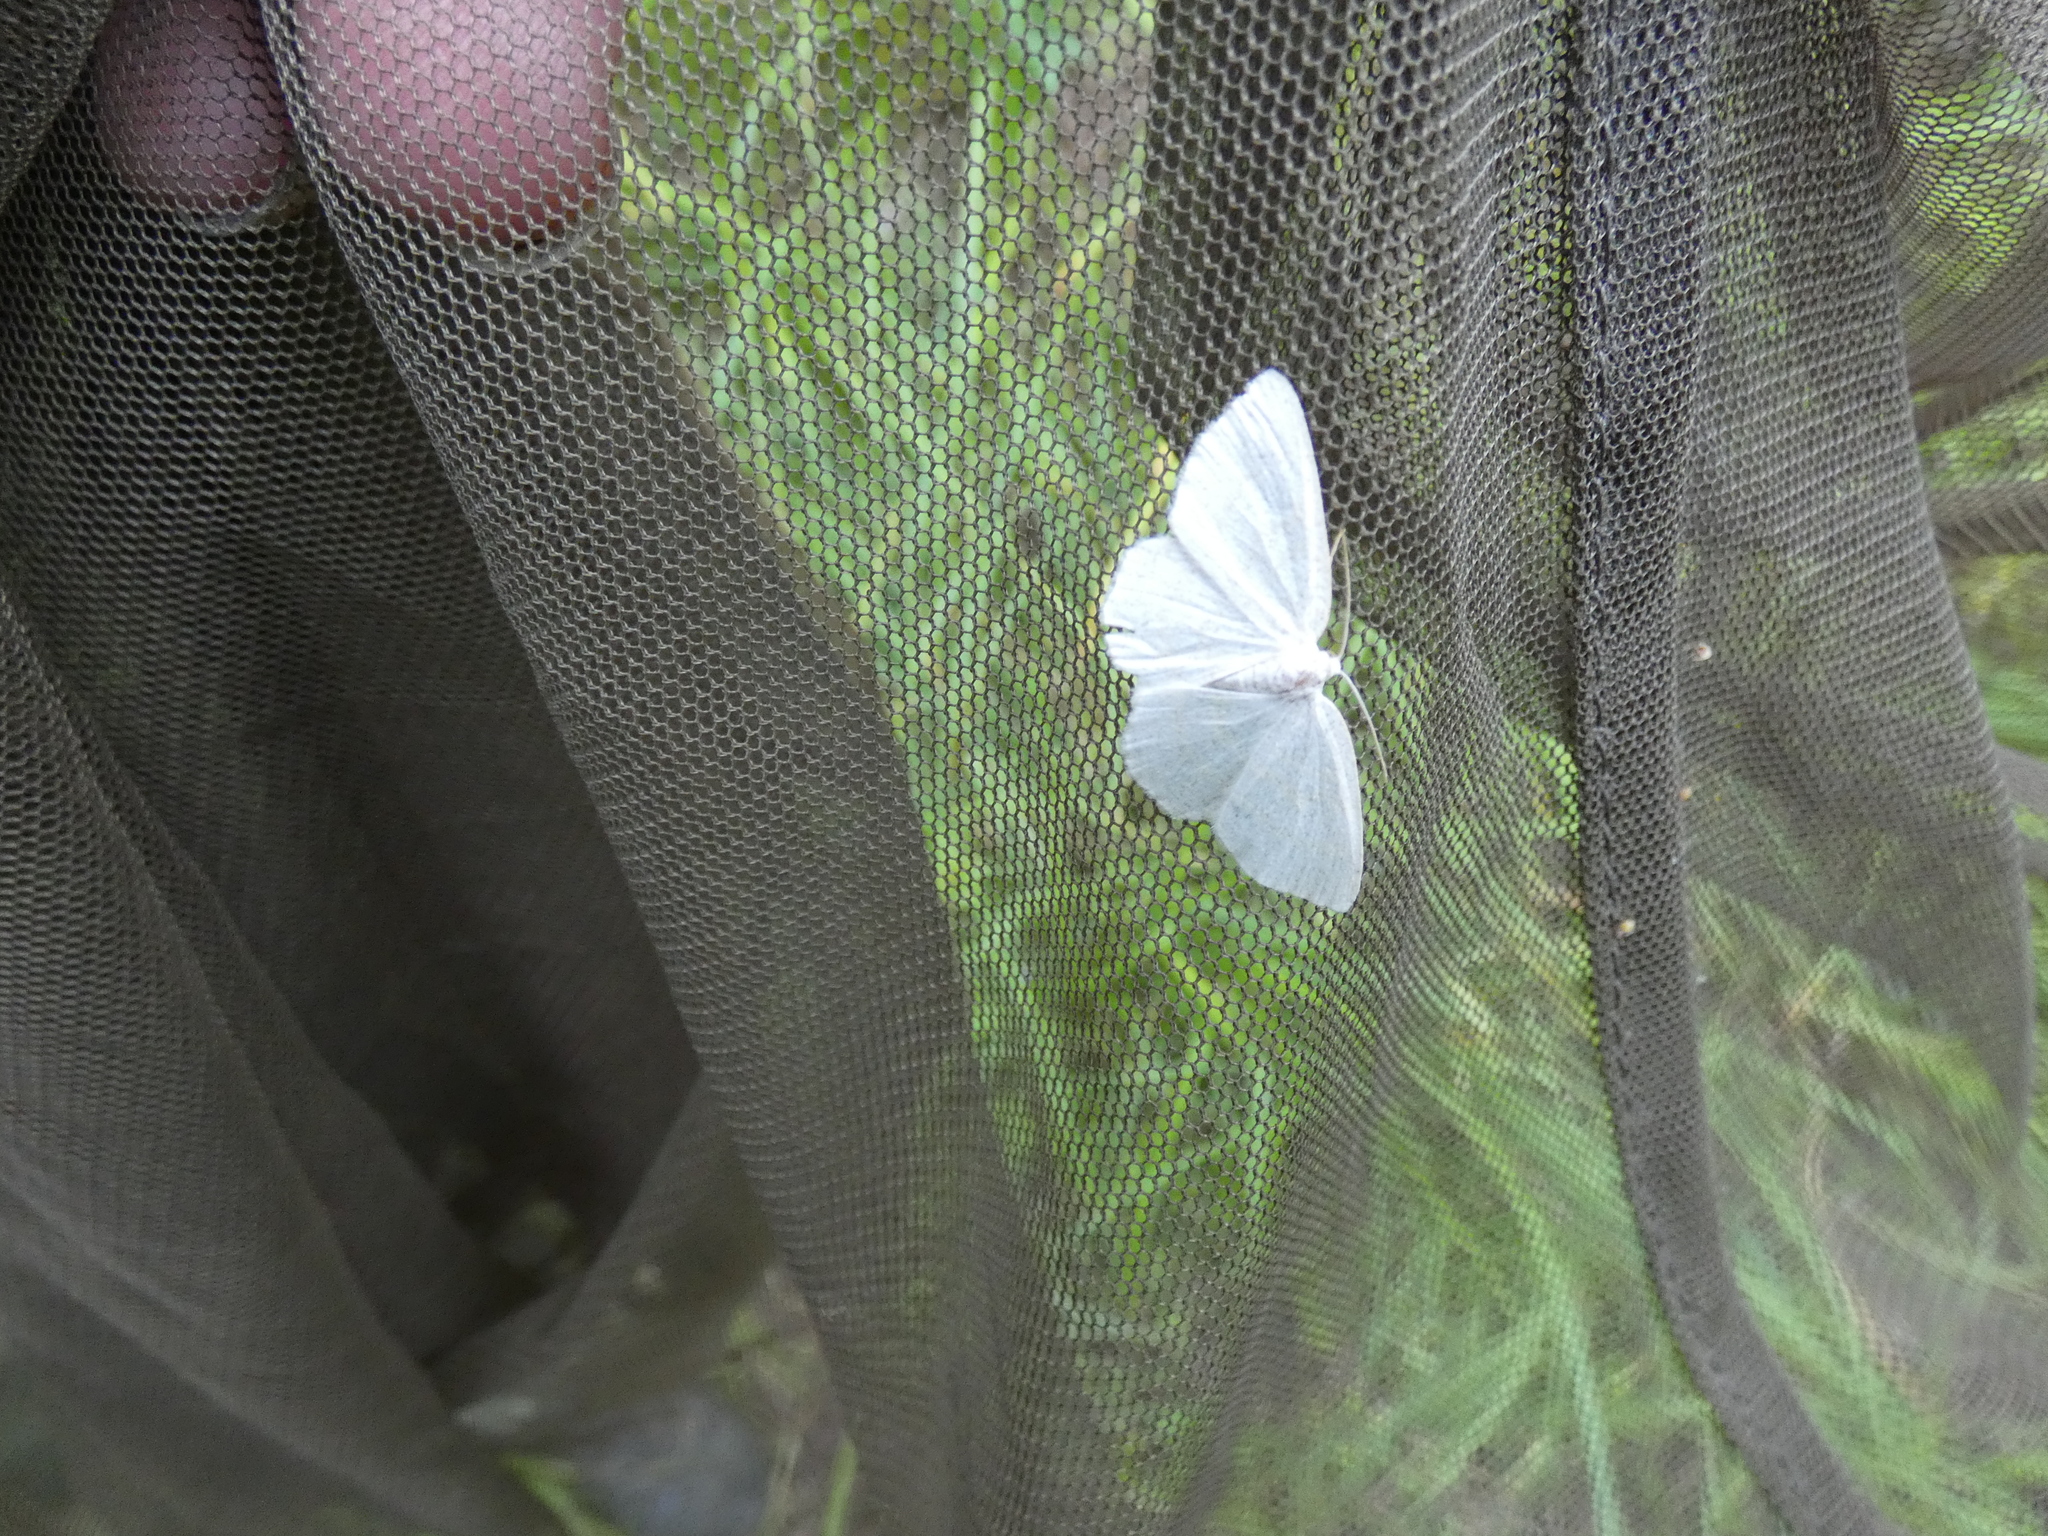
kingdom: Animalia
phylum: Arthropoda
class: Insecta
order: Lepidoptera
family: Geometridae
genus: Cabera
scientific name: Cabera exanthemata
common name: Common wave
